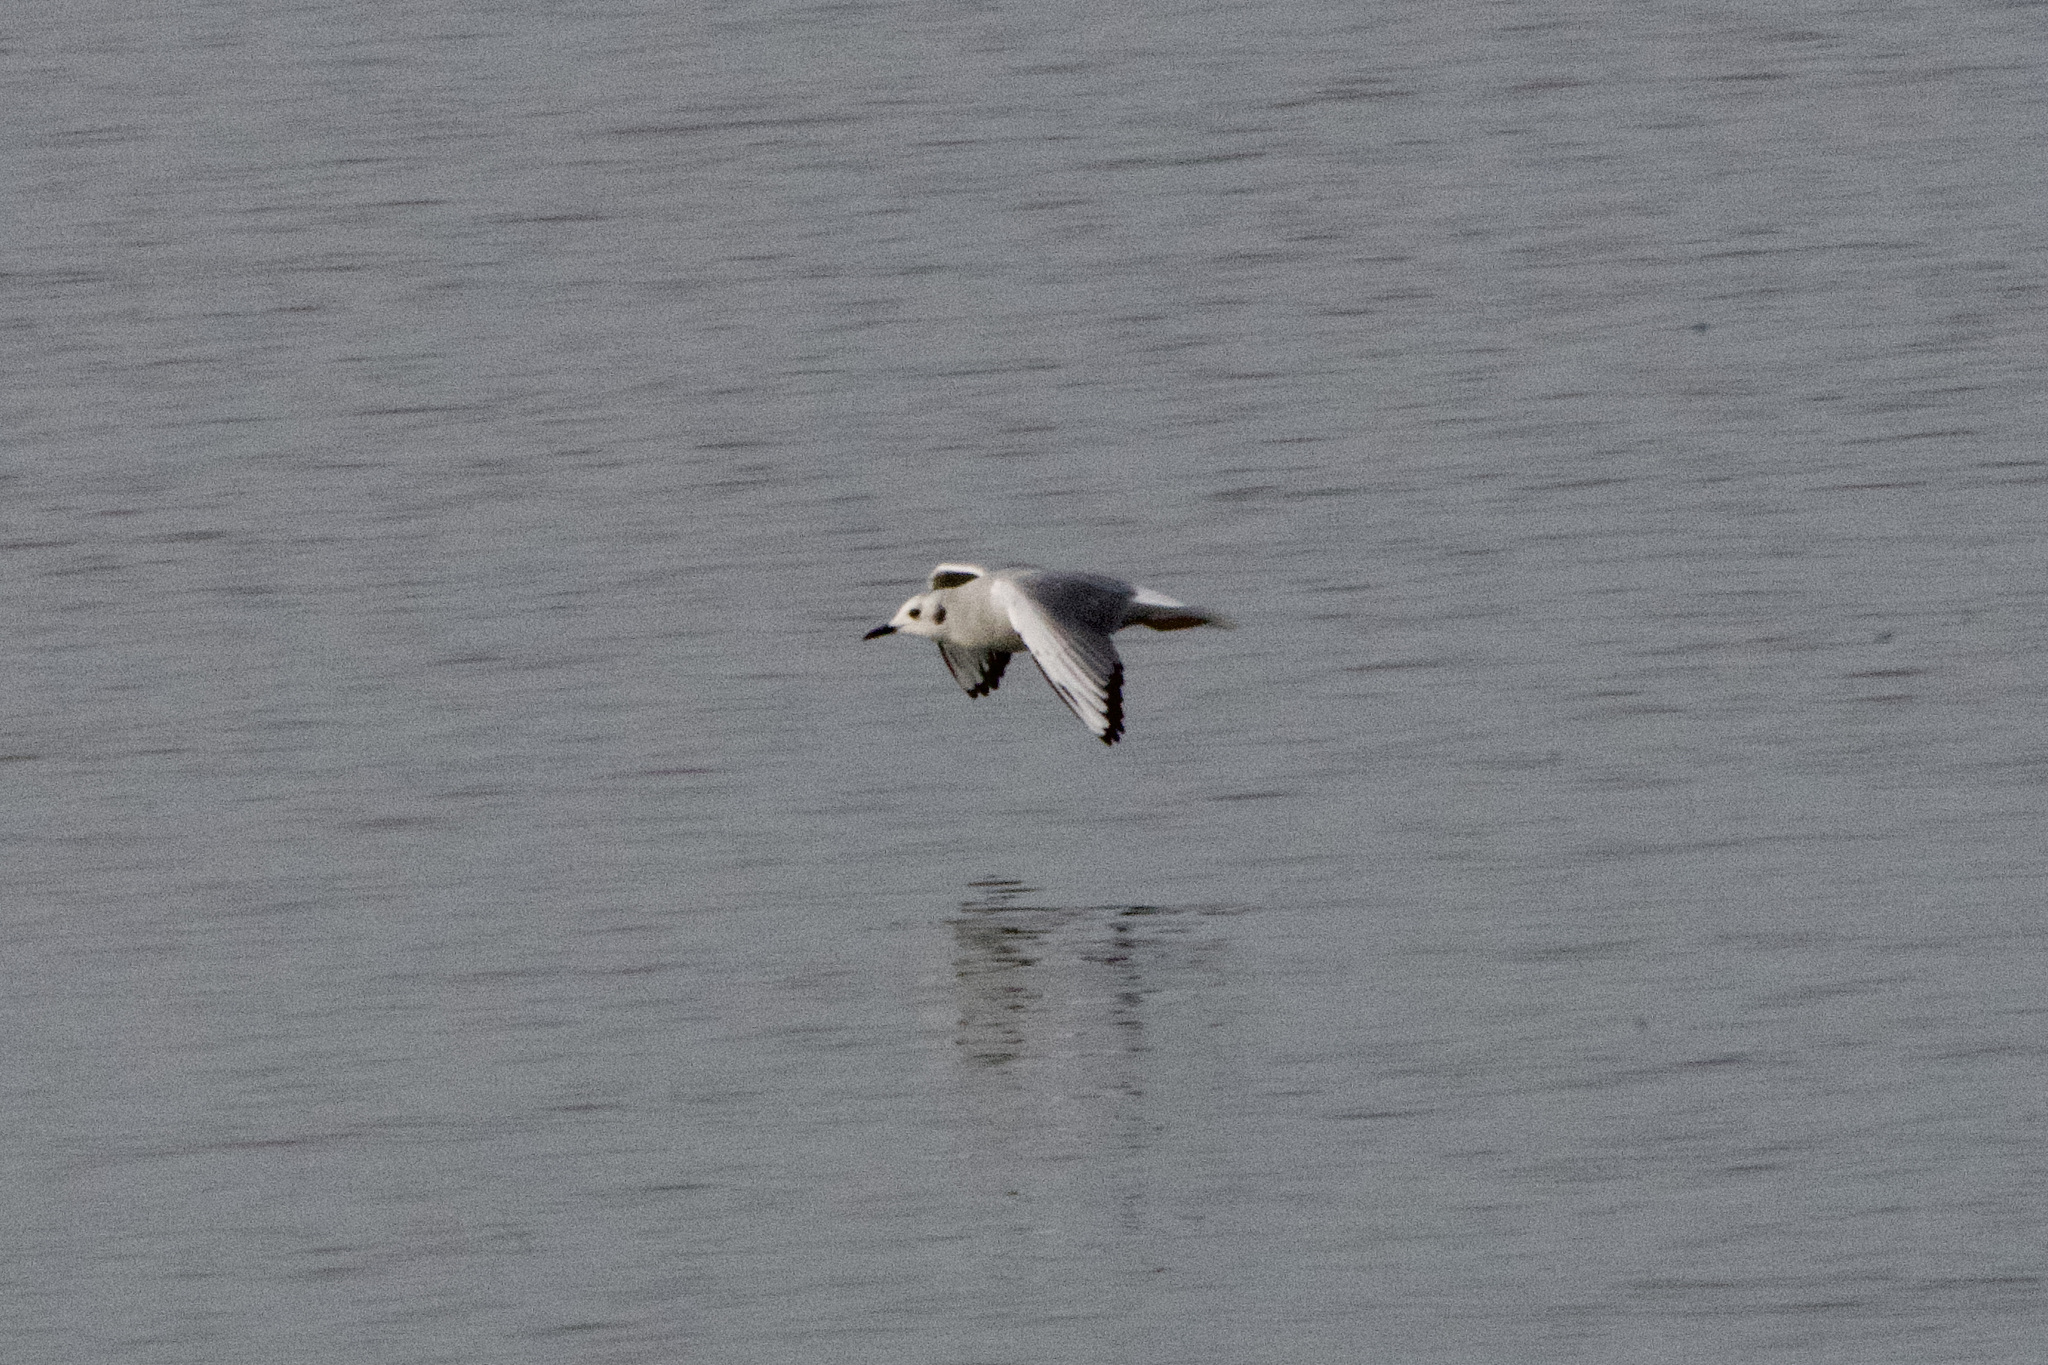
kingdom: Animalia
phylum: Chordata
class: Aves
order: Charadriiformes
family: Laridae
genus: Chroicocephalus
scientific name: Chroicocephalus philadelphia
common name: Bonaparte's gull
